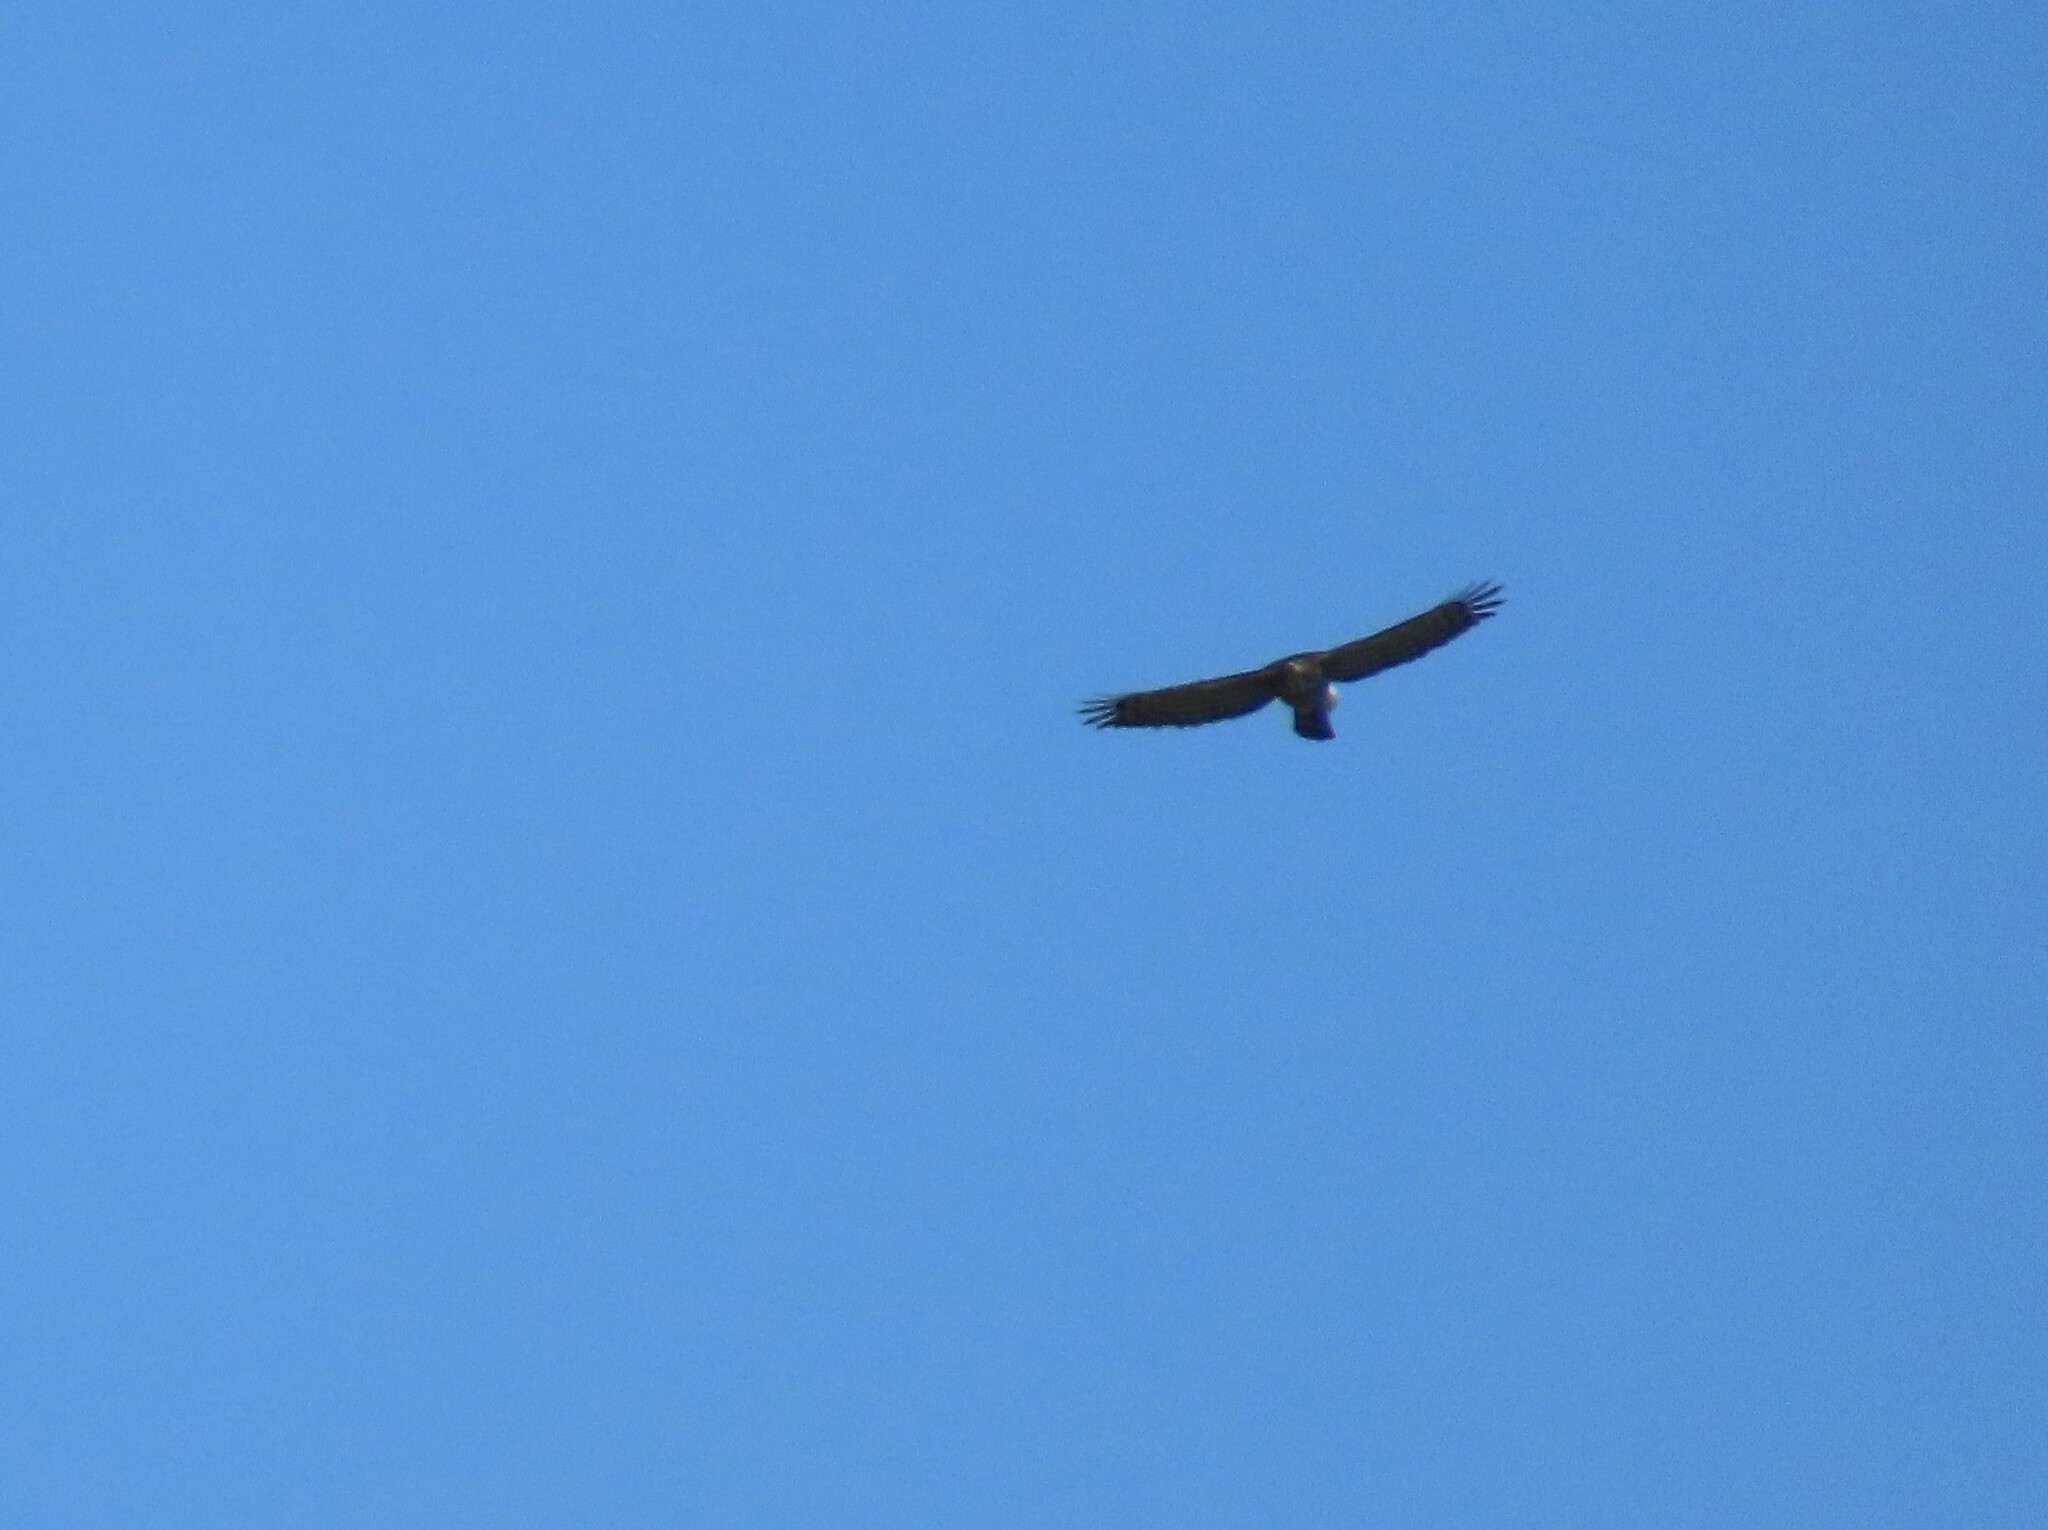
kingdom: Animalia
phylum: Chordata
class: Aves
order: Accipitriformes
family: Accipitridae
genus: Accipiter
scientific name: Accipiter trivirgatus
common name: Crested goshawk
